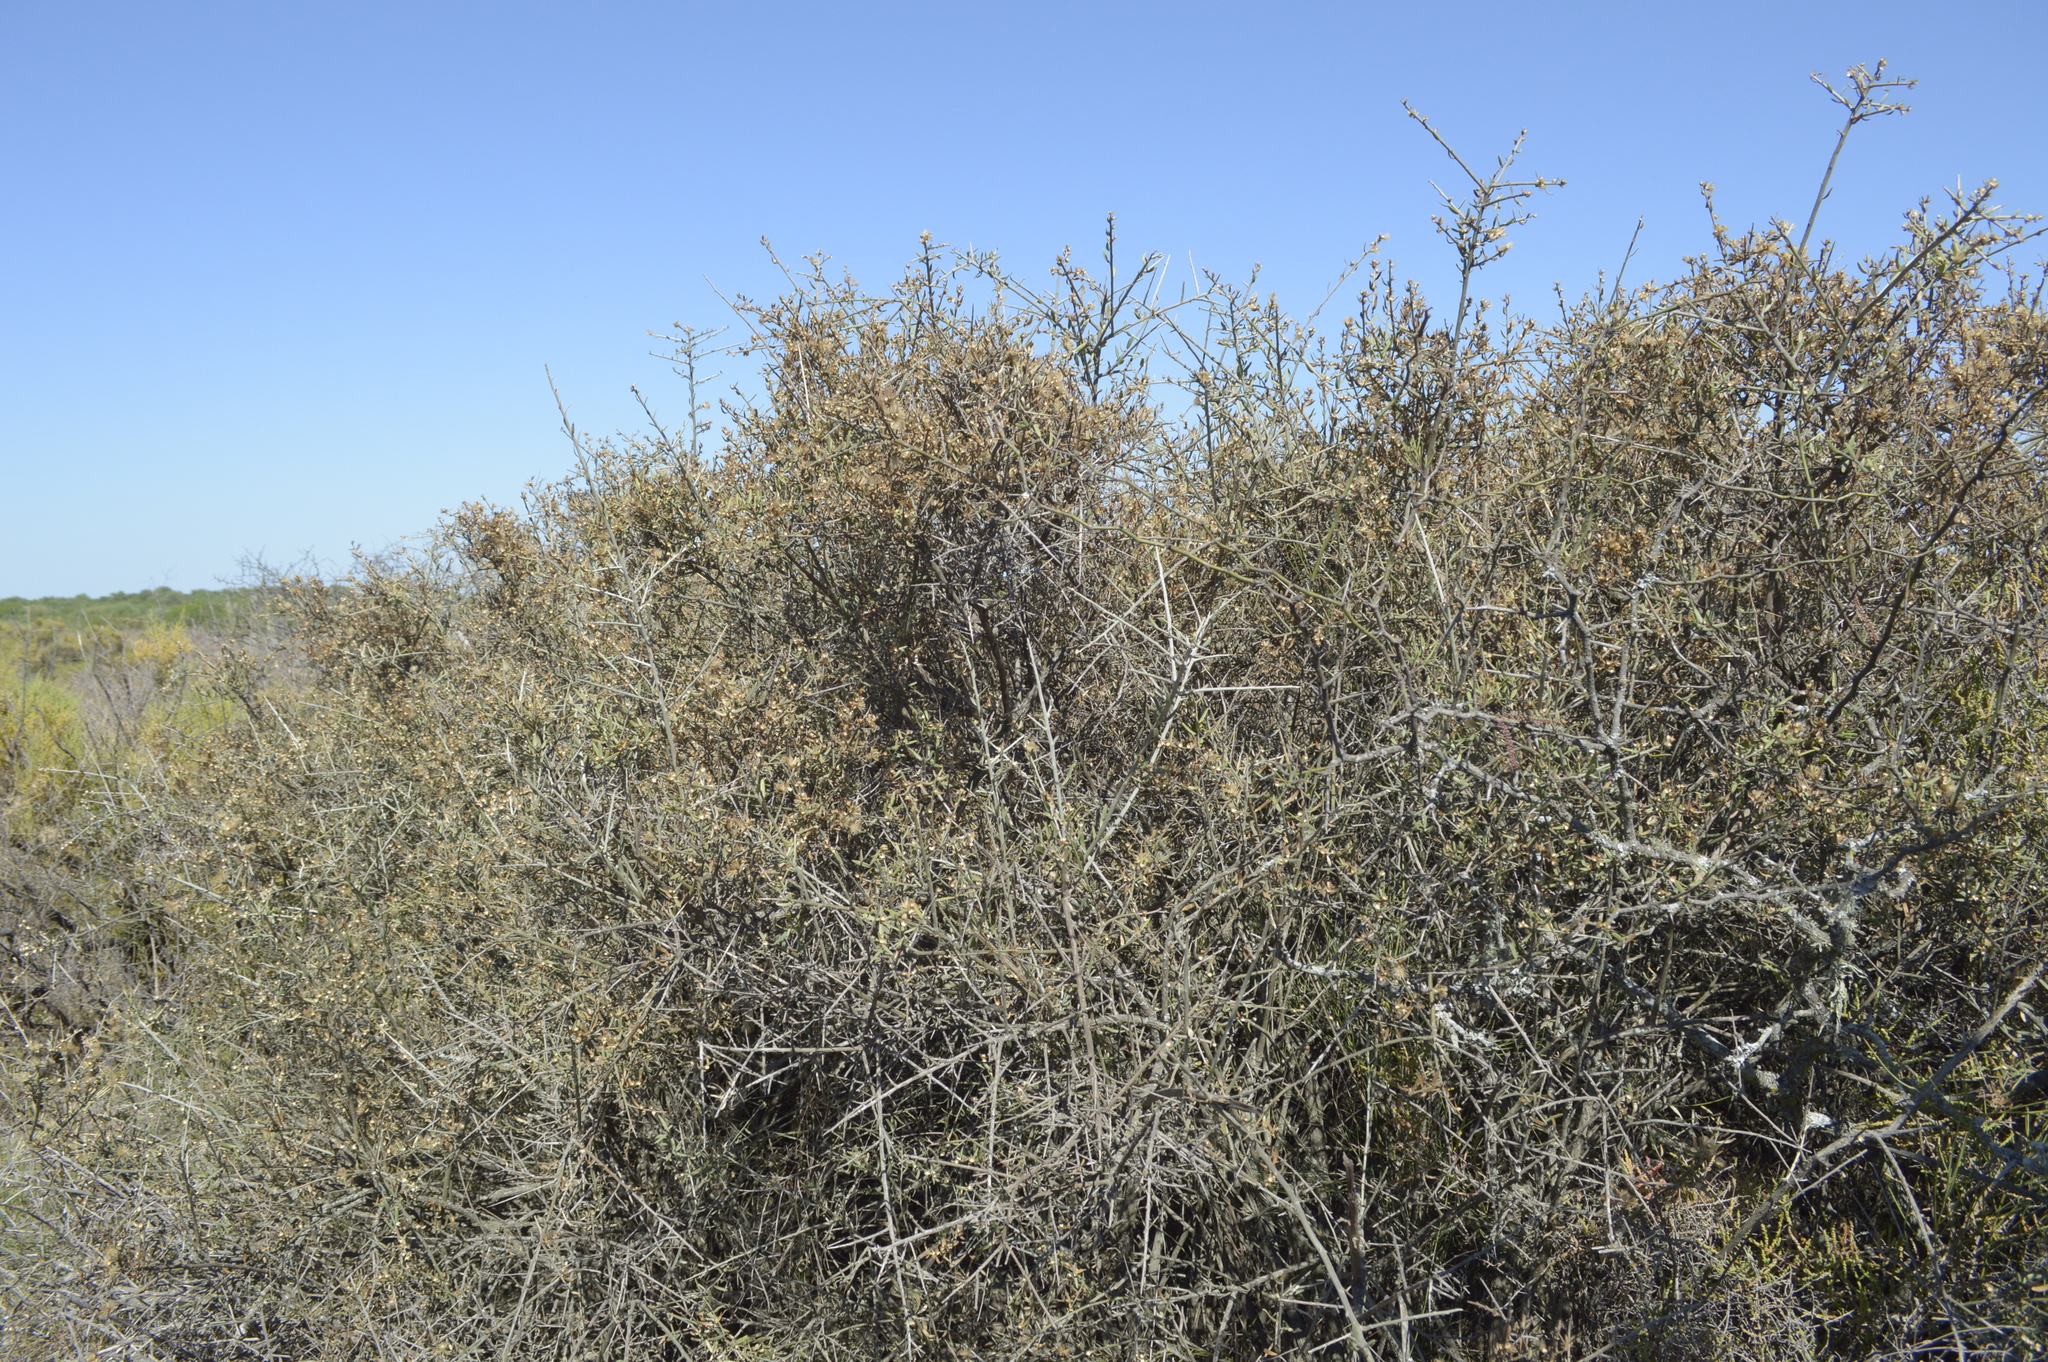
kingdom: Plantae
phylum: Tracheophyta
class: Magnoliopsida
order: Asterales
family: Asteraceae
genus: Cyclolepis
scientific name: Cyclolepis genistoides
